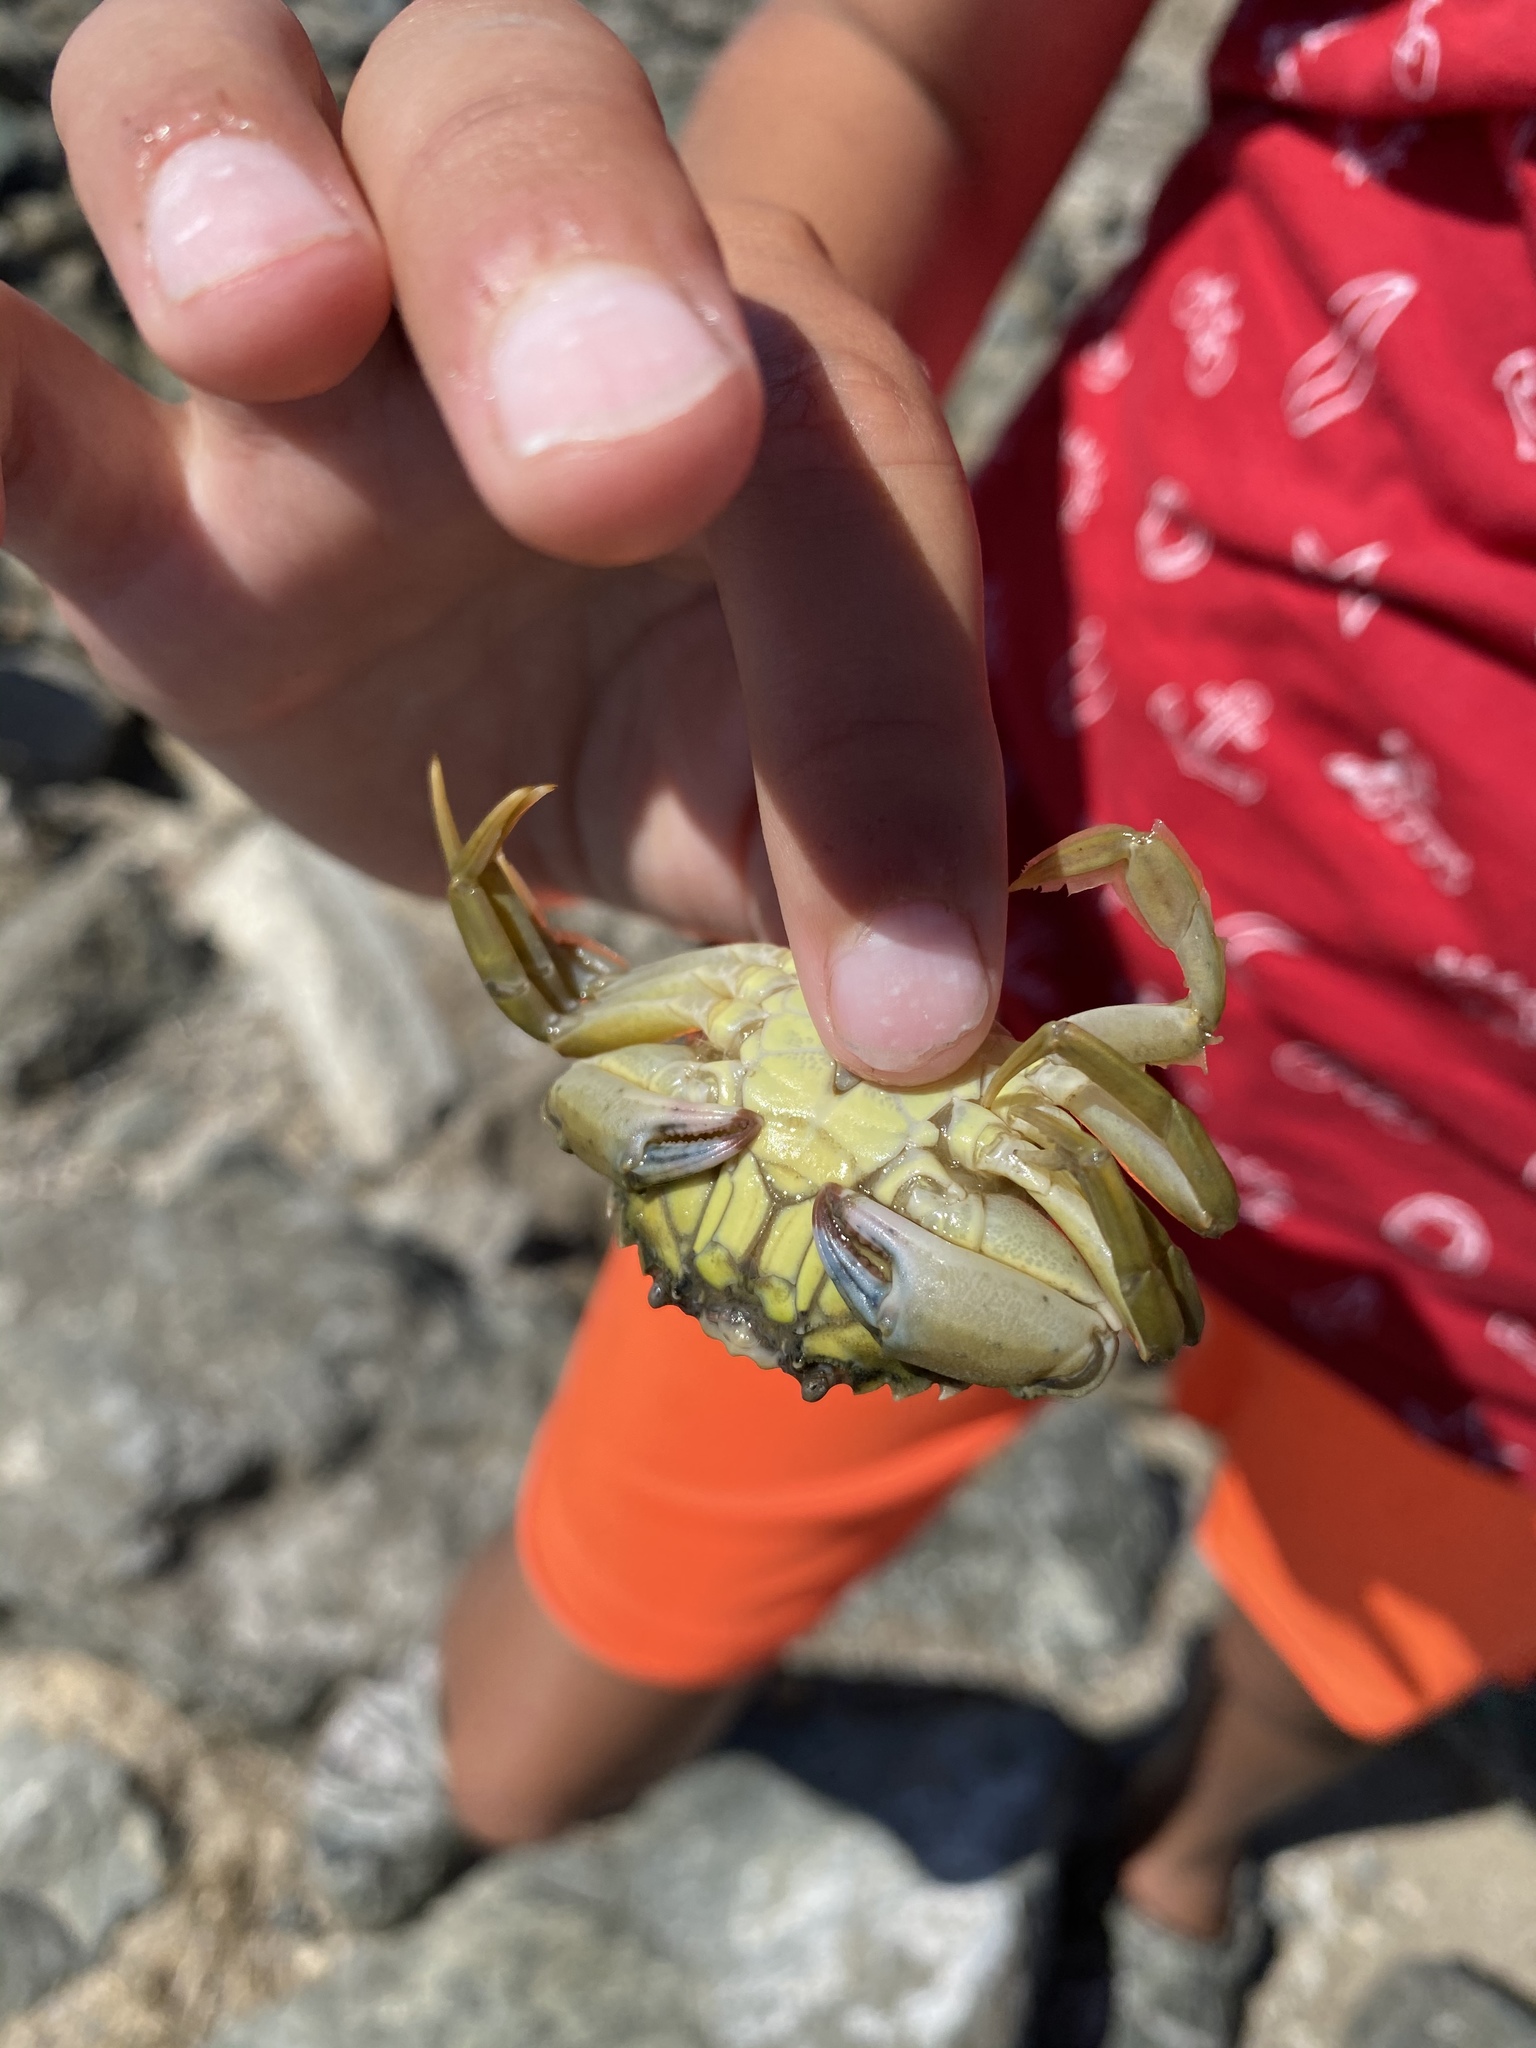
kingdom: Animalia
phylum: Arthropoda
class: Malacostraca
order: Decapoda
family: Carcinidae
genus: Carcinus
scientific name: Carcinus maenas
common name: European green crab
